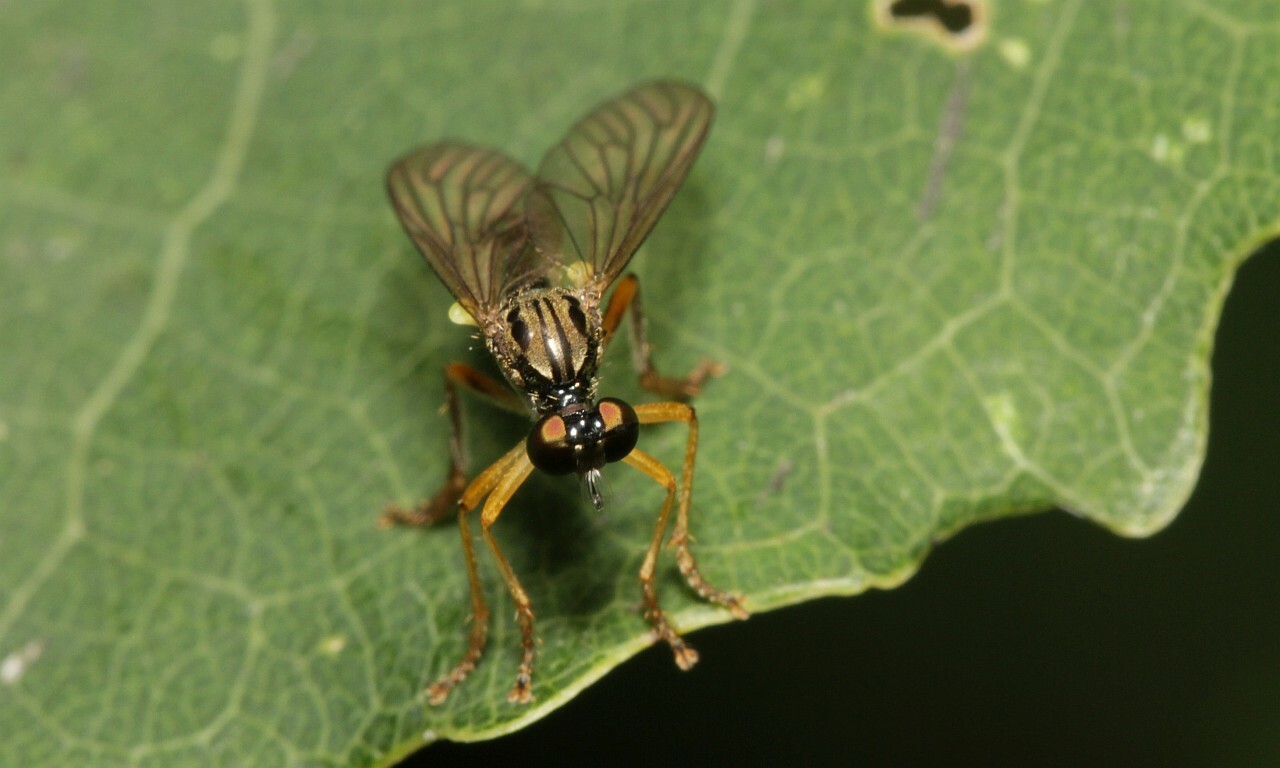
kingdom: Animalia
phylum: Arthropoda
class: Insecta
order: Diptera
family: Asilidae
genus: Dioctria
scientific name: Dioctria linearis
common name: Small yellow-legged robberfly
